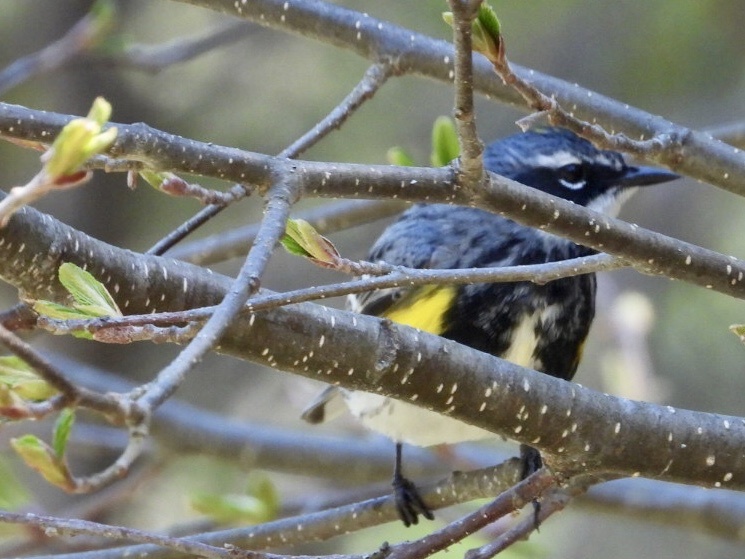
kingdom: Animalia
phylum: Chordata
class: Aves
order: Passeriformes
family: Parulidae
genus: Setophaga
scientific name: Setophaga coronata
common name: Myrtle warbler
